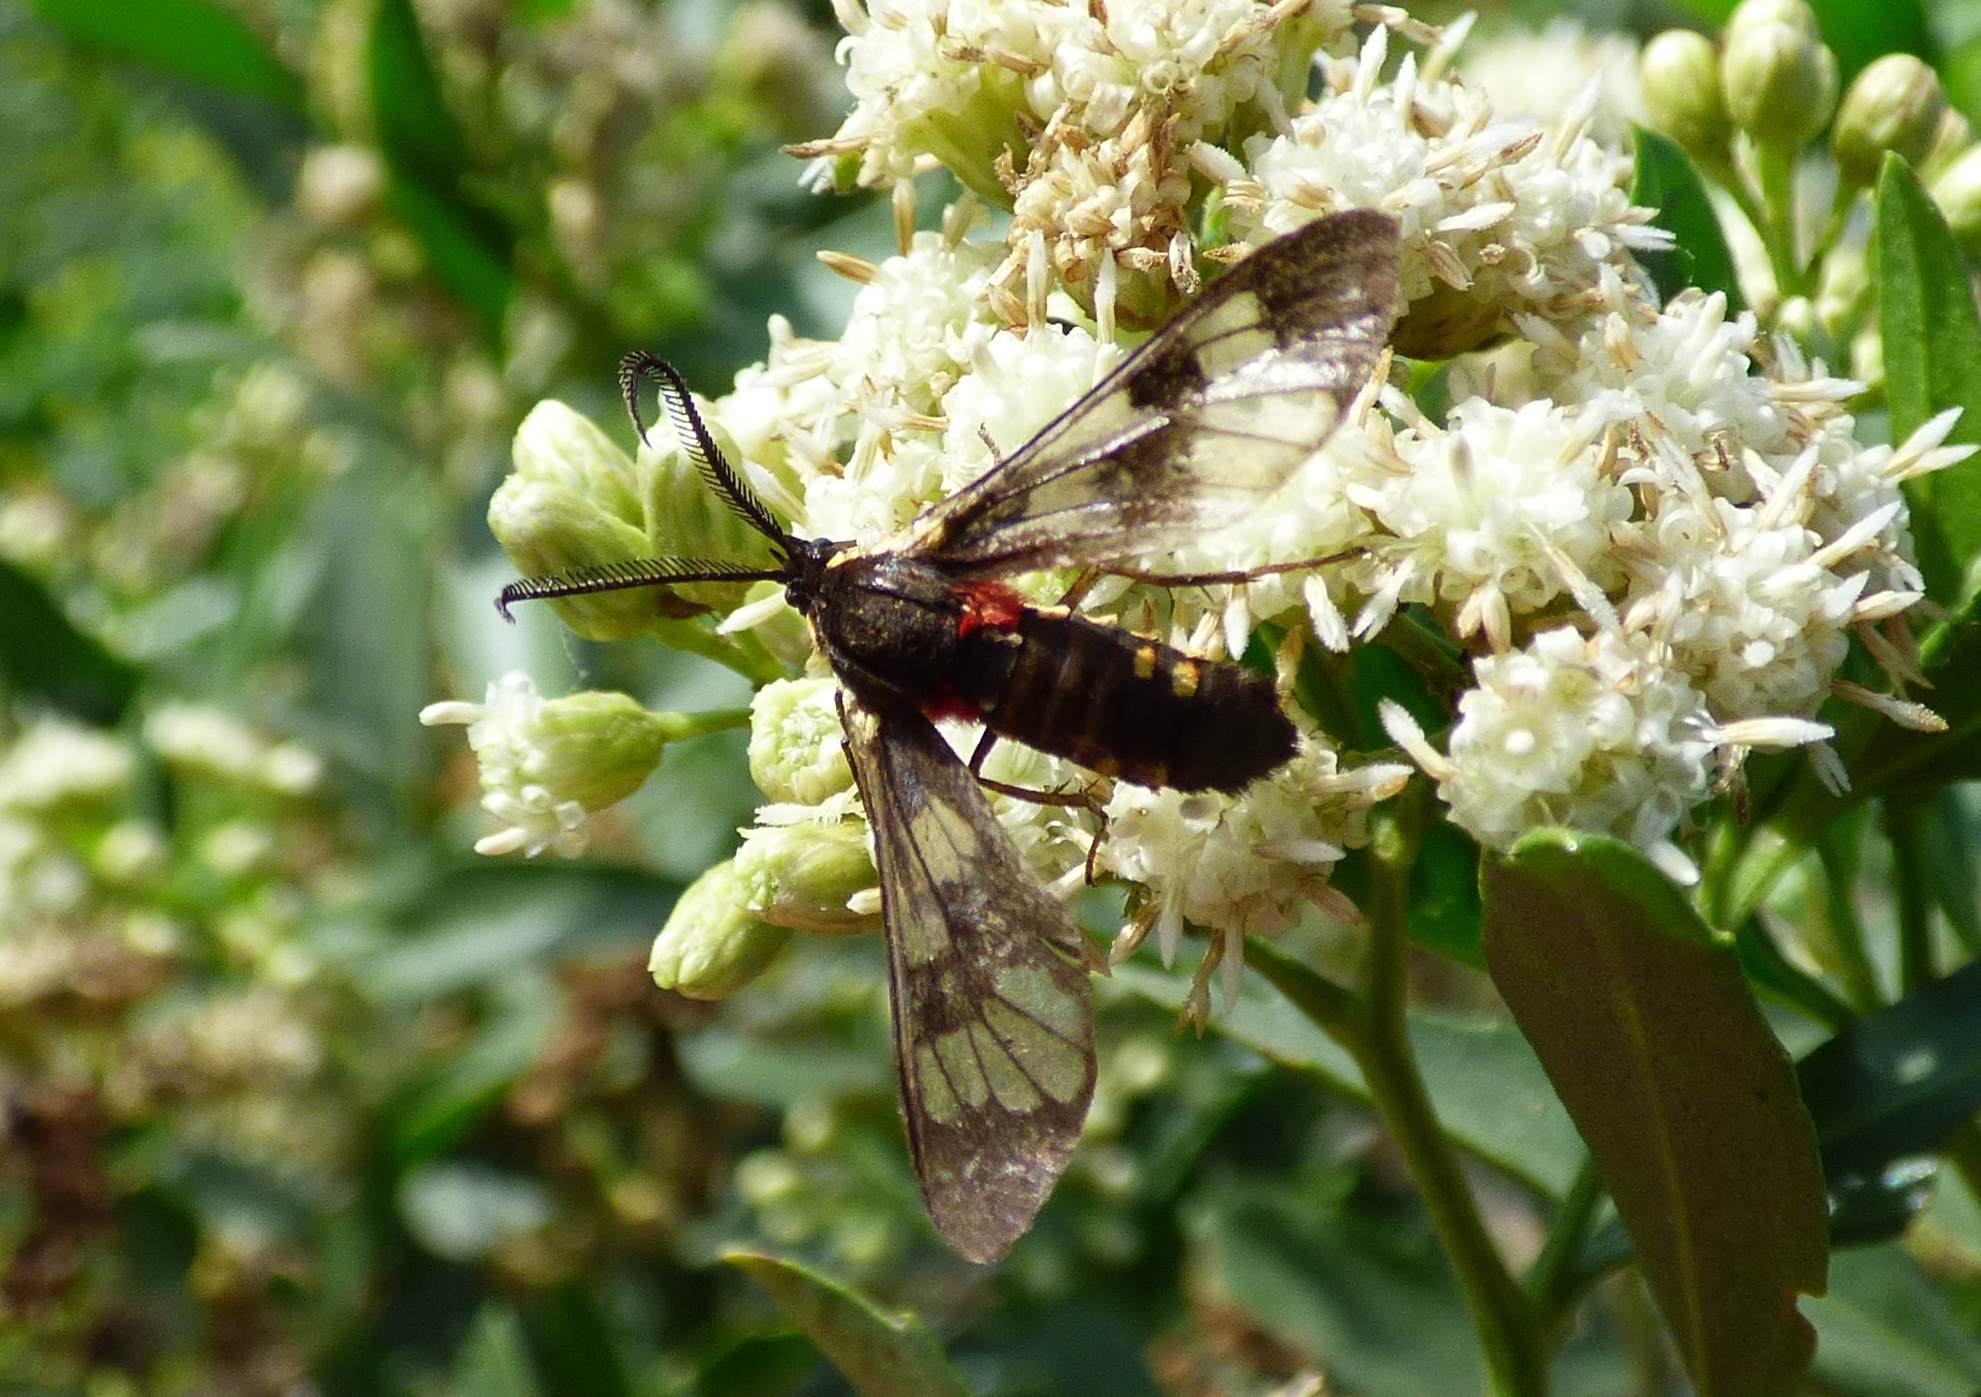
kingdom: Animalia
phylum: Arthropoda
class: Insecta
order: Lepidoptera
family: Erebidae
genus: Eurata
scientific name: Eurata hermione
